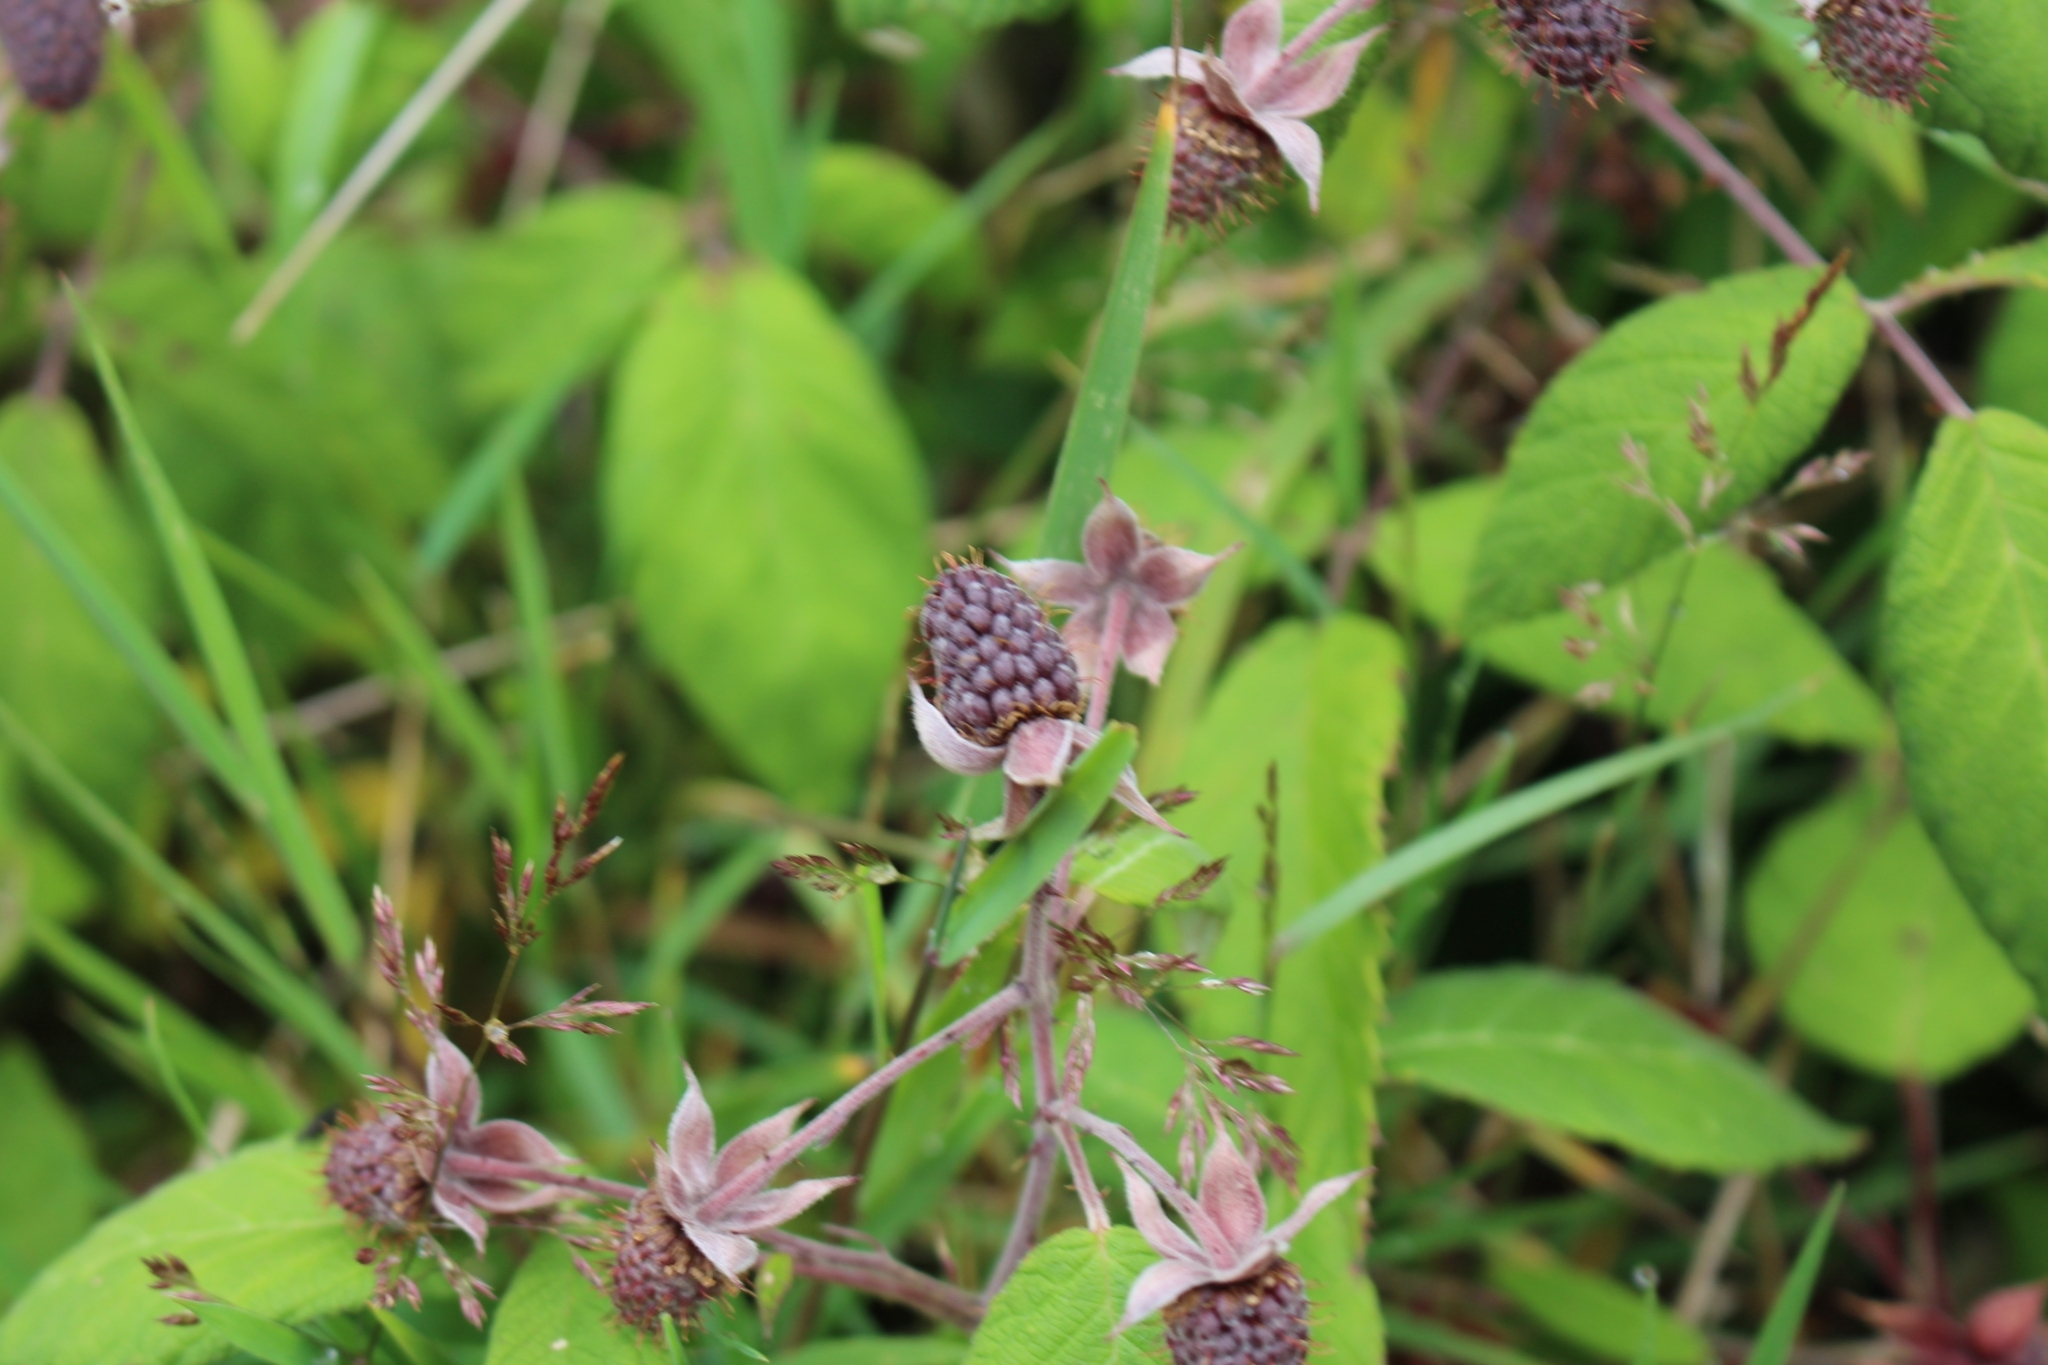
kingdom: Plantae
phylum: Tracheophyta
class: Magnoliopsida
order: Rosales
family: Rosaceae
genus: Rubus
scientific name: Rubus glaucus
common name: Andean blackberry
